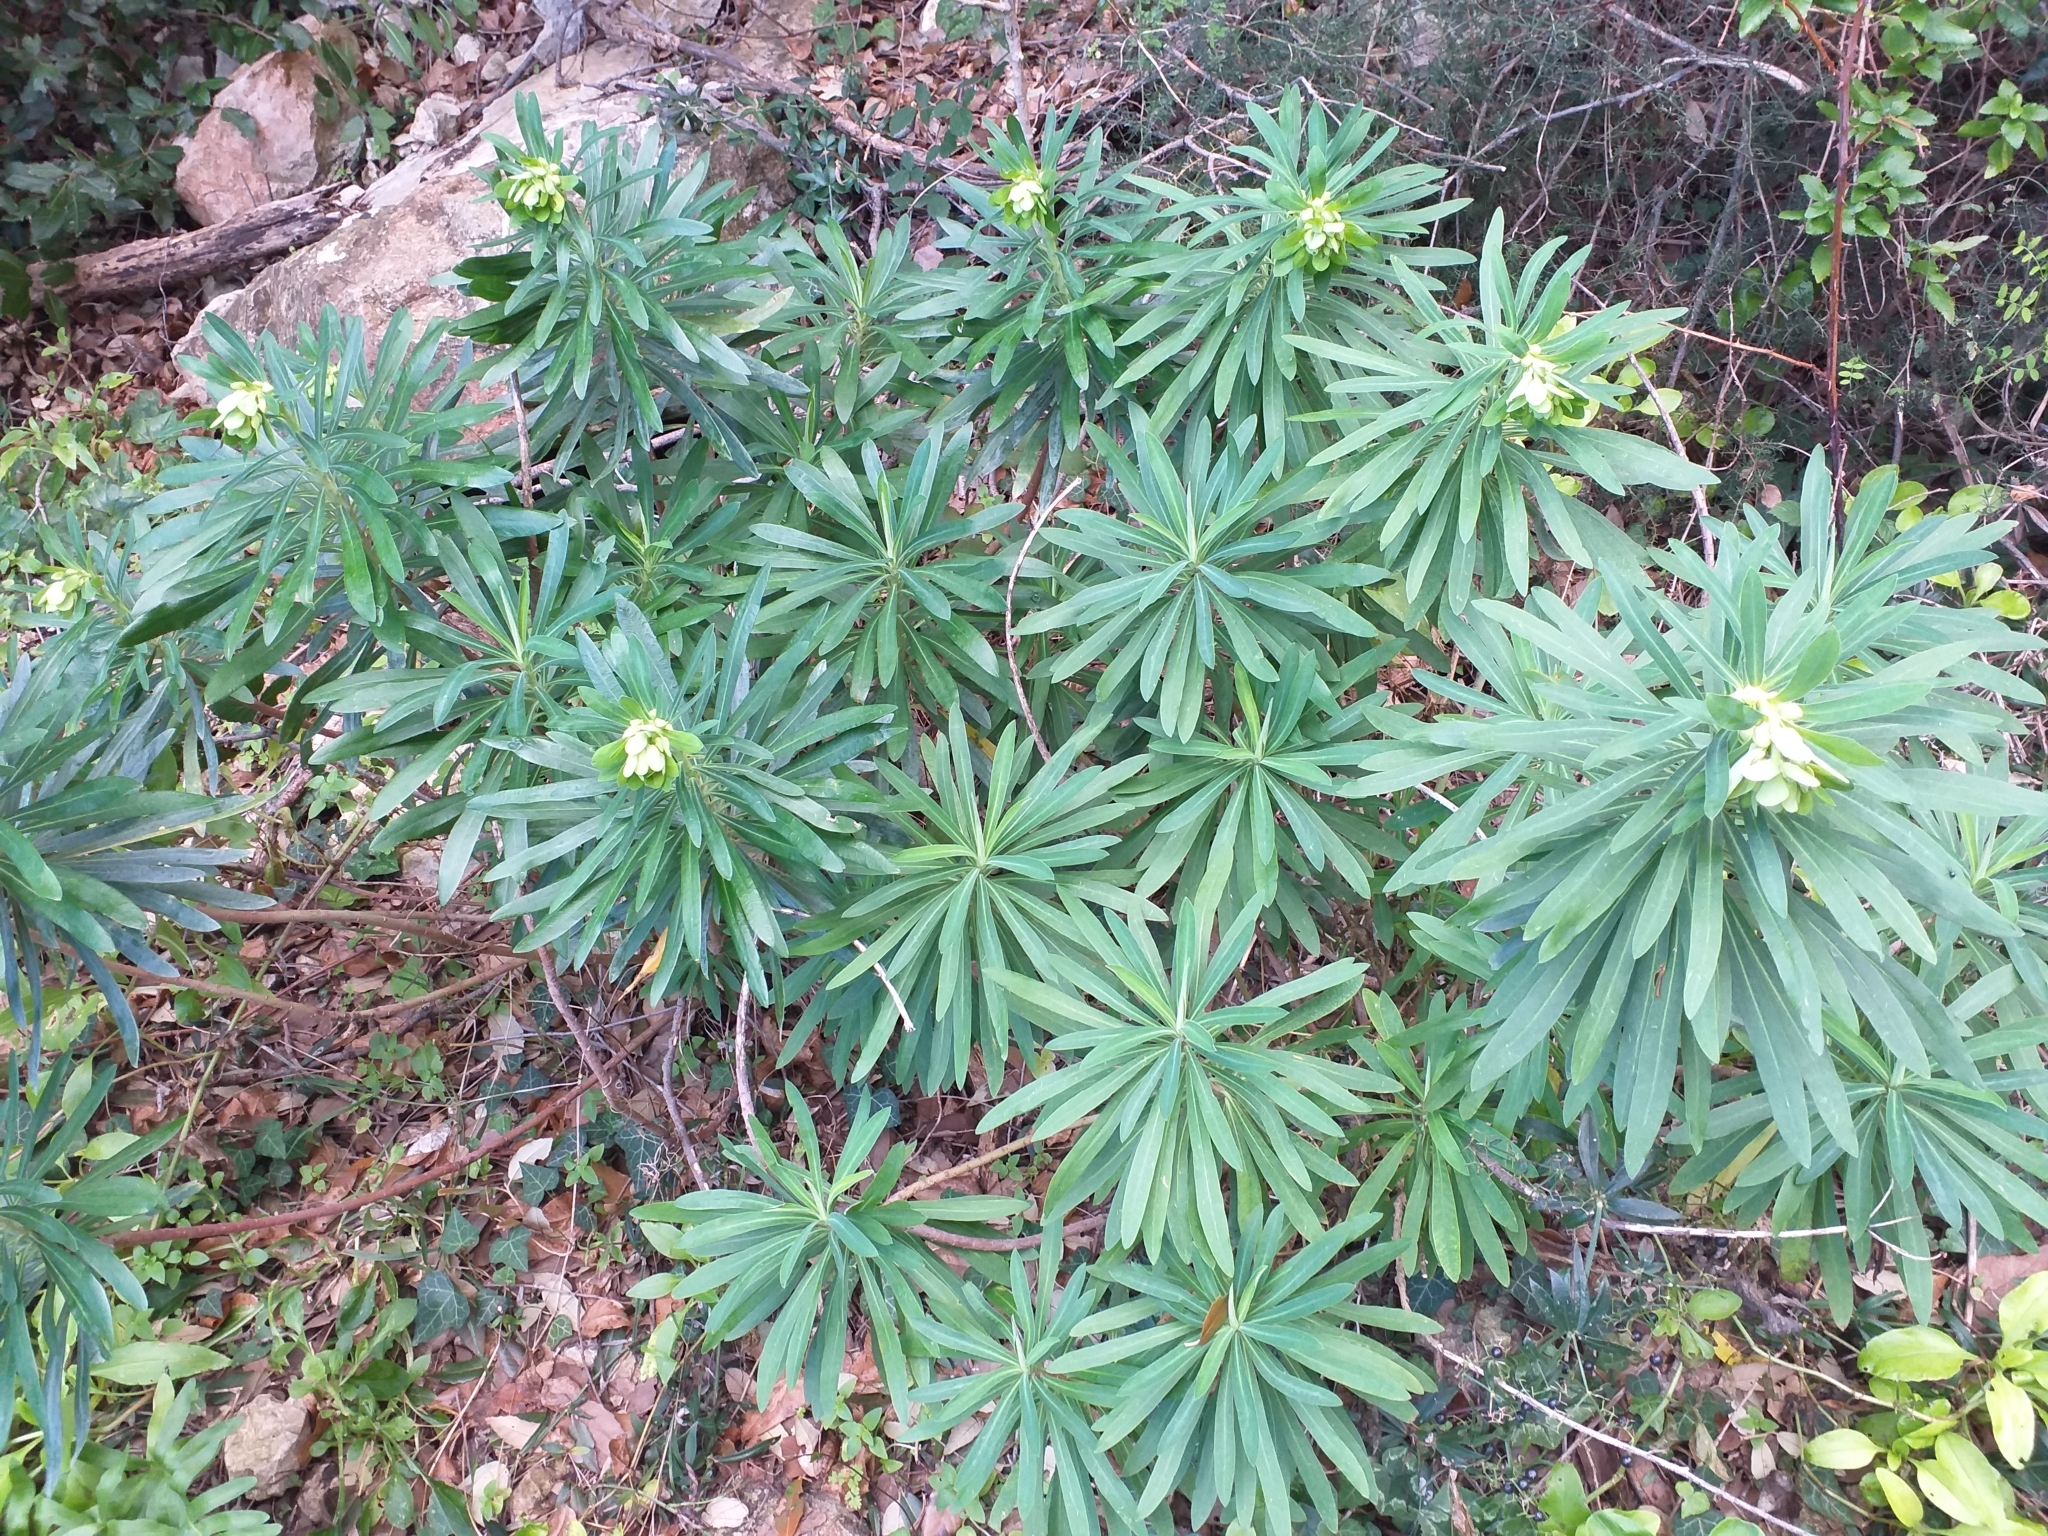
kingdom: Plantae
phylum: Tracheophyta
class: Magnoliopsida
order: Malpighiales
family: Euphorbiaceae
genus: Euphorbia
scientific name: Euphorbia characias
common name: Mediterranean spurge
